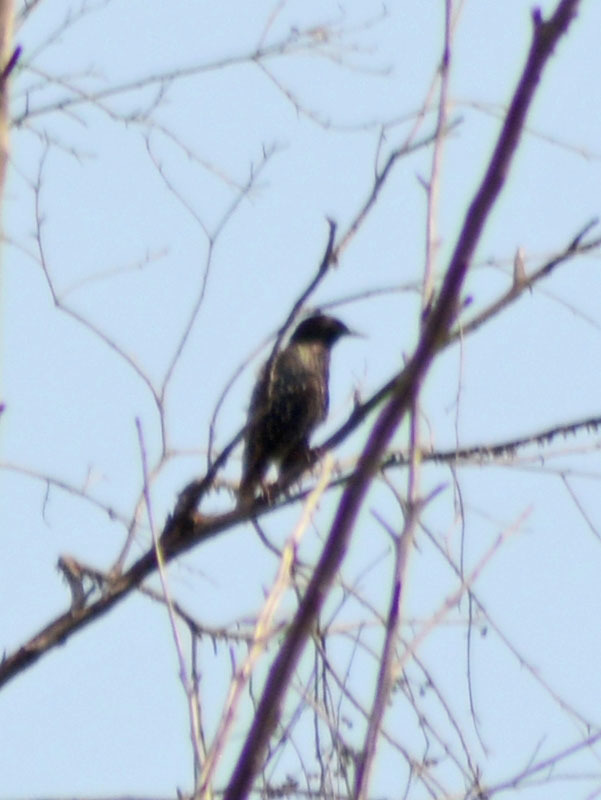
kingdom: Animalia
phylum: Chordata
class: Aves
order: Passeriformes
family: Sturnidae
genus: Sturnus
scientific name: Sturnus vulgaris
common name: Common starling
